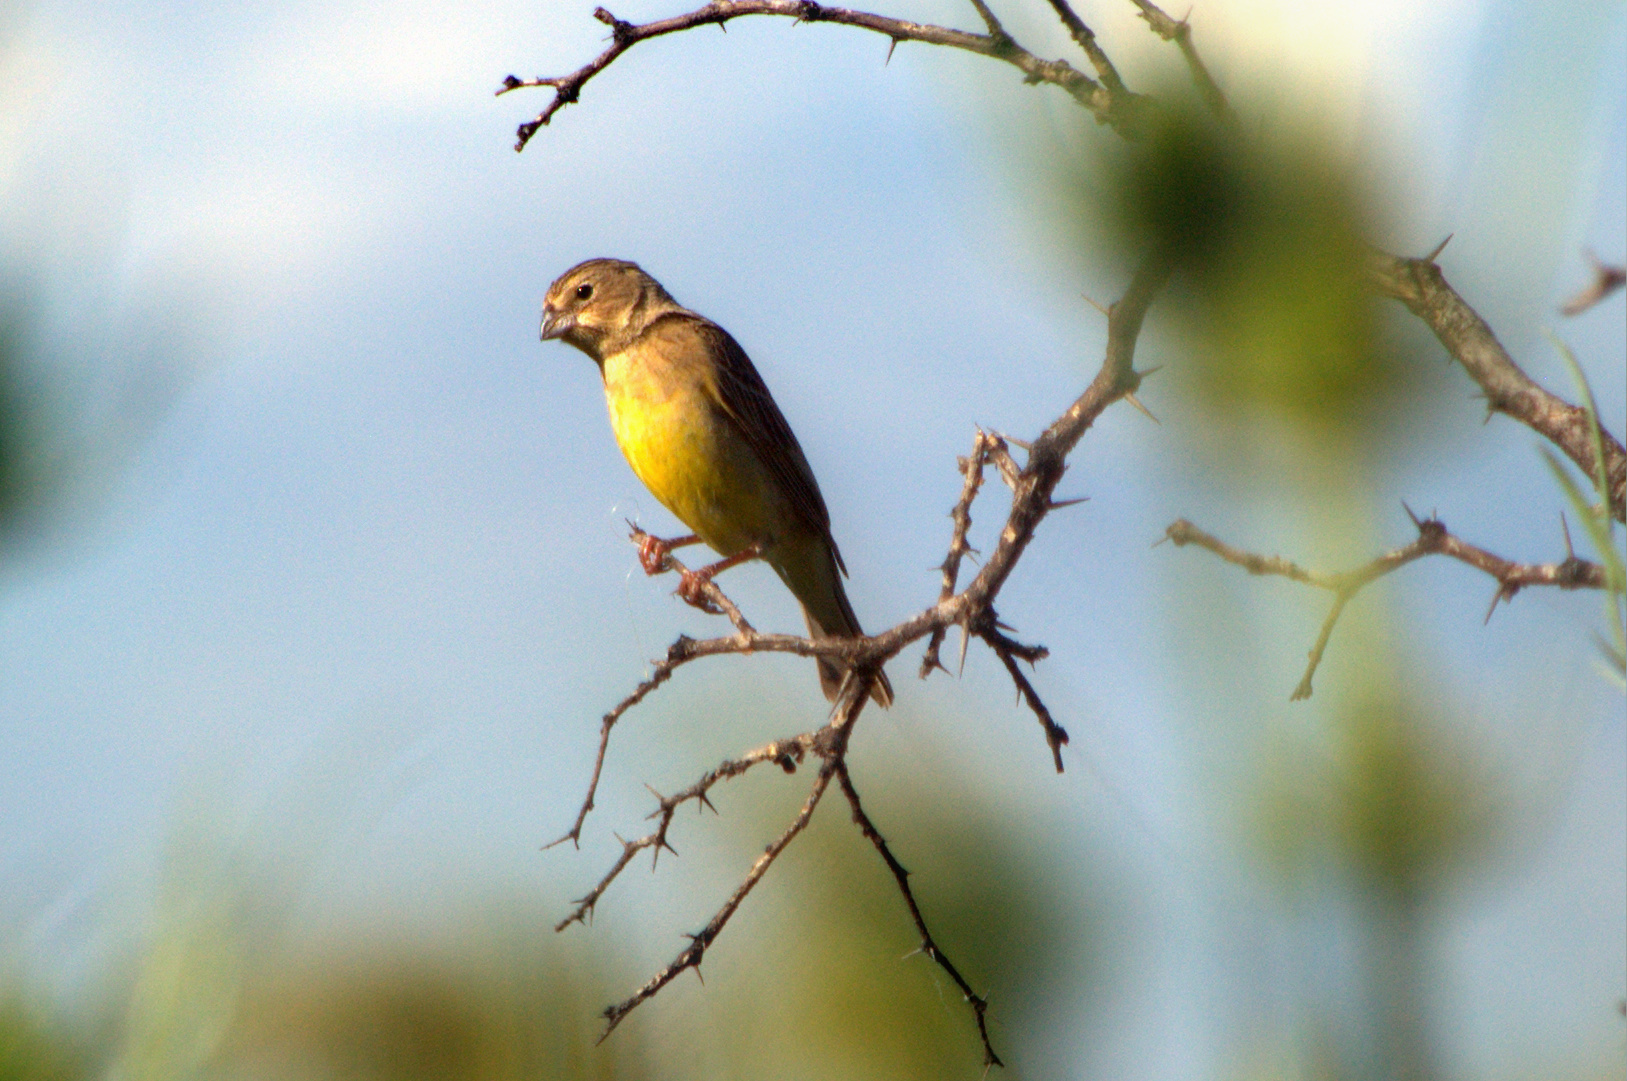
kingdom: Animalia
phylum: Chordata
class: Aves
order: Passeriformes
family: Thraupidae
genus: Sicalis
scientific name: Sicalis luteola
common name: Grassland yellow-finch
